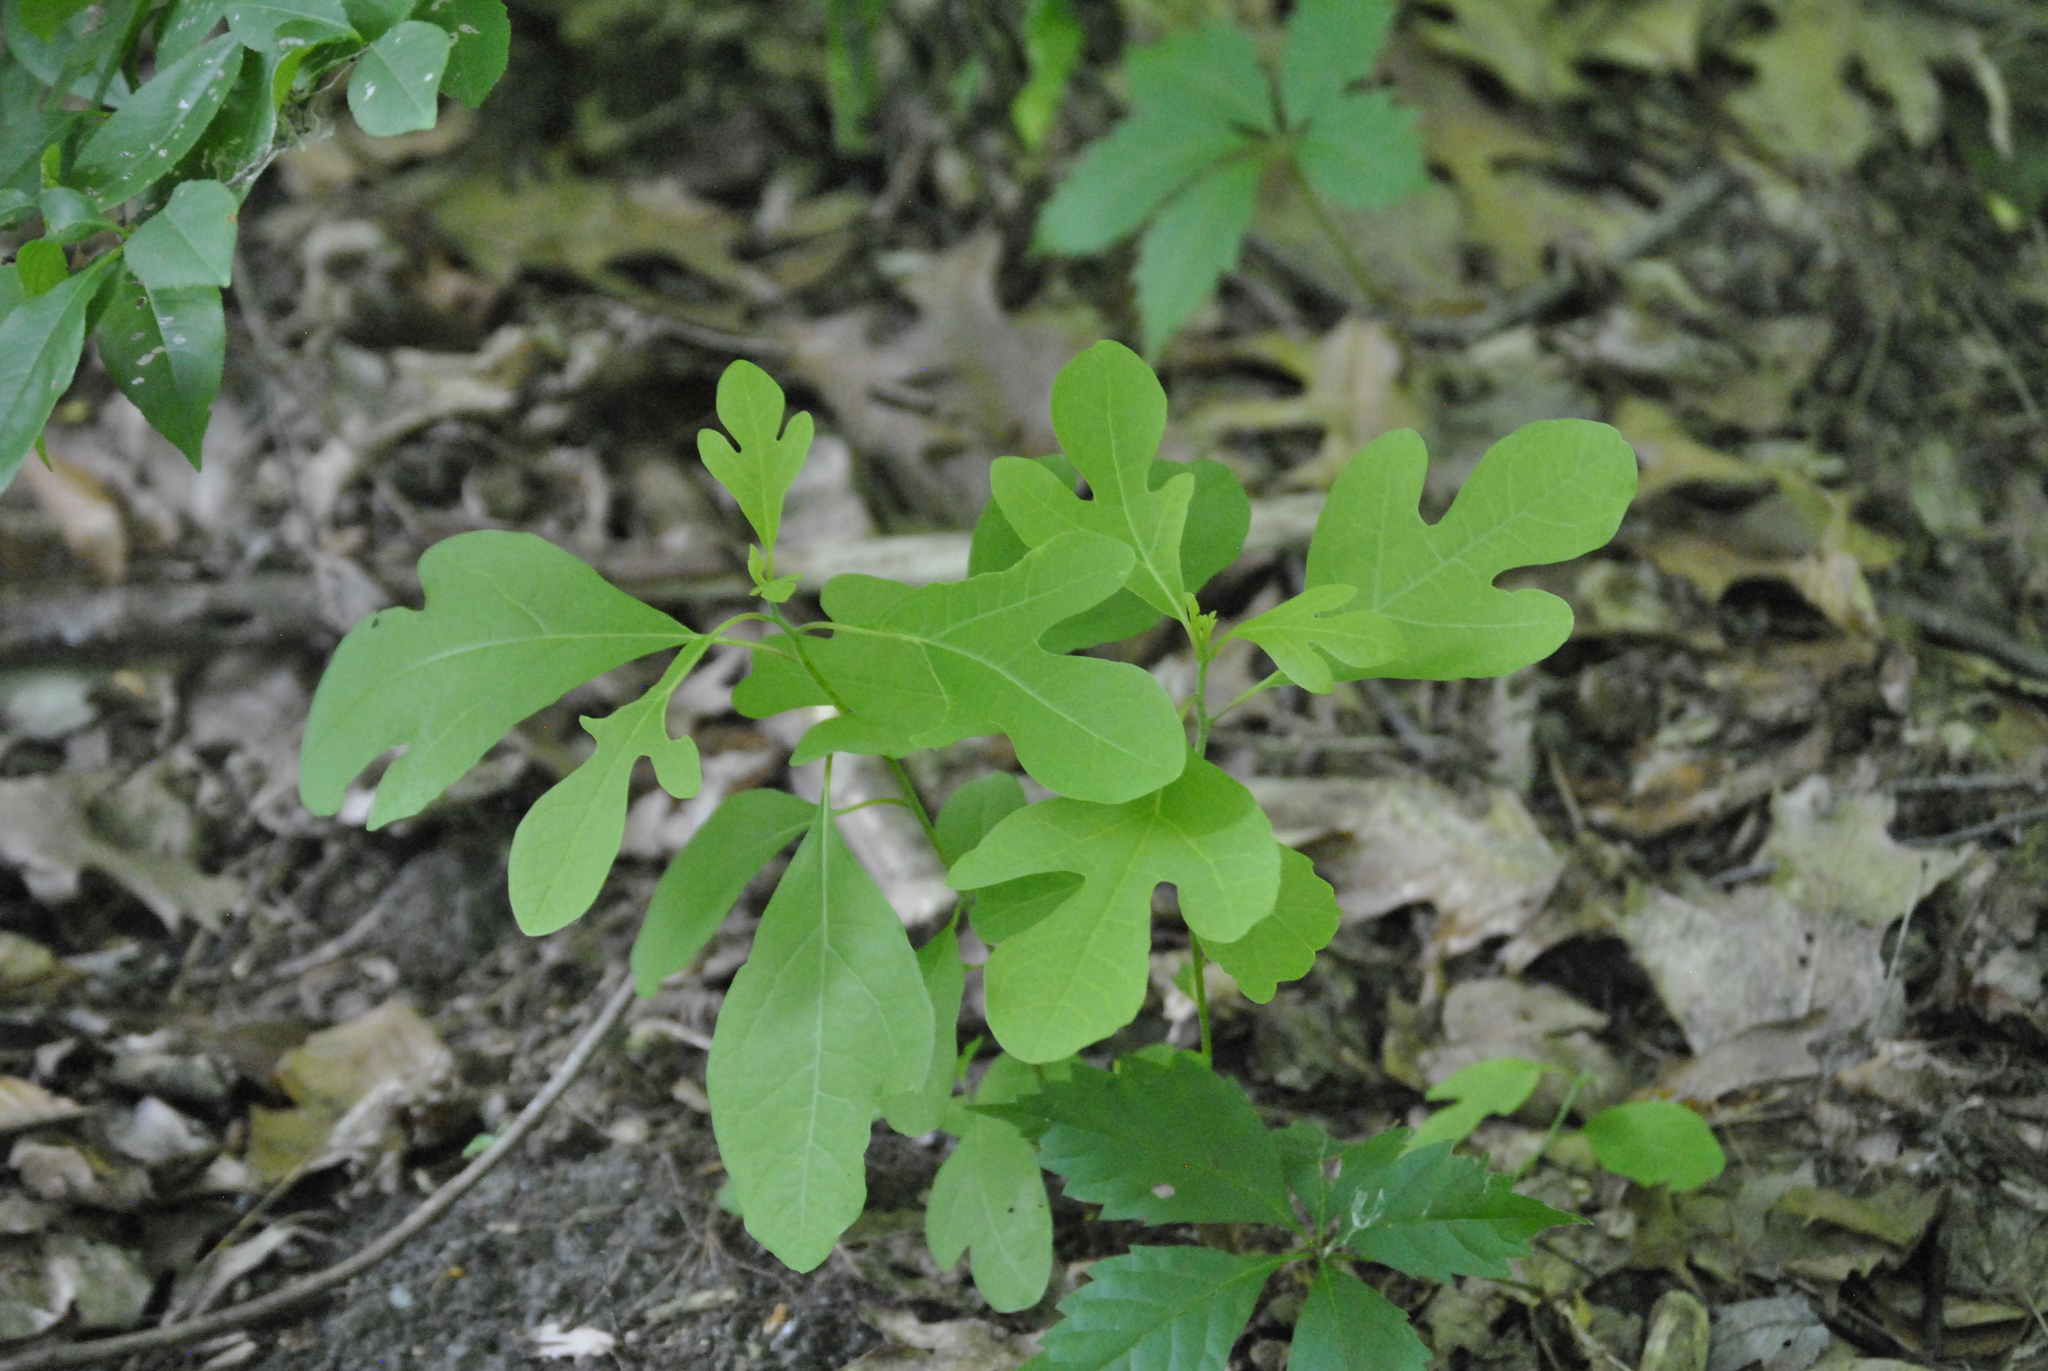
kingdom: Plantae
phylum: Tracheophyta
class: Magnoliopsida
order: Laurales
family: Lauraceae
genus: Sassafras
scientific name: Sassafras albidum
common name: Sassafras
